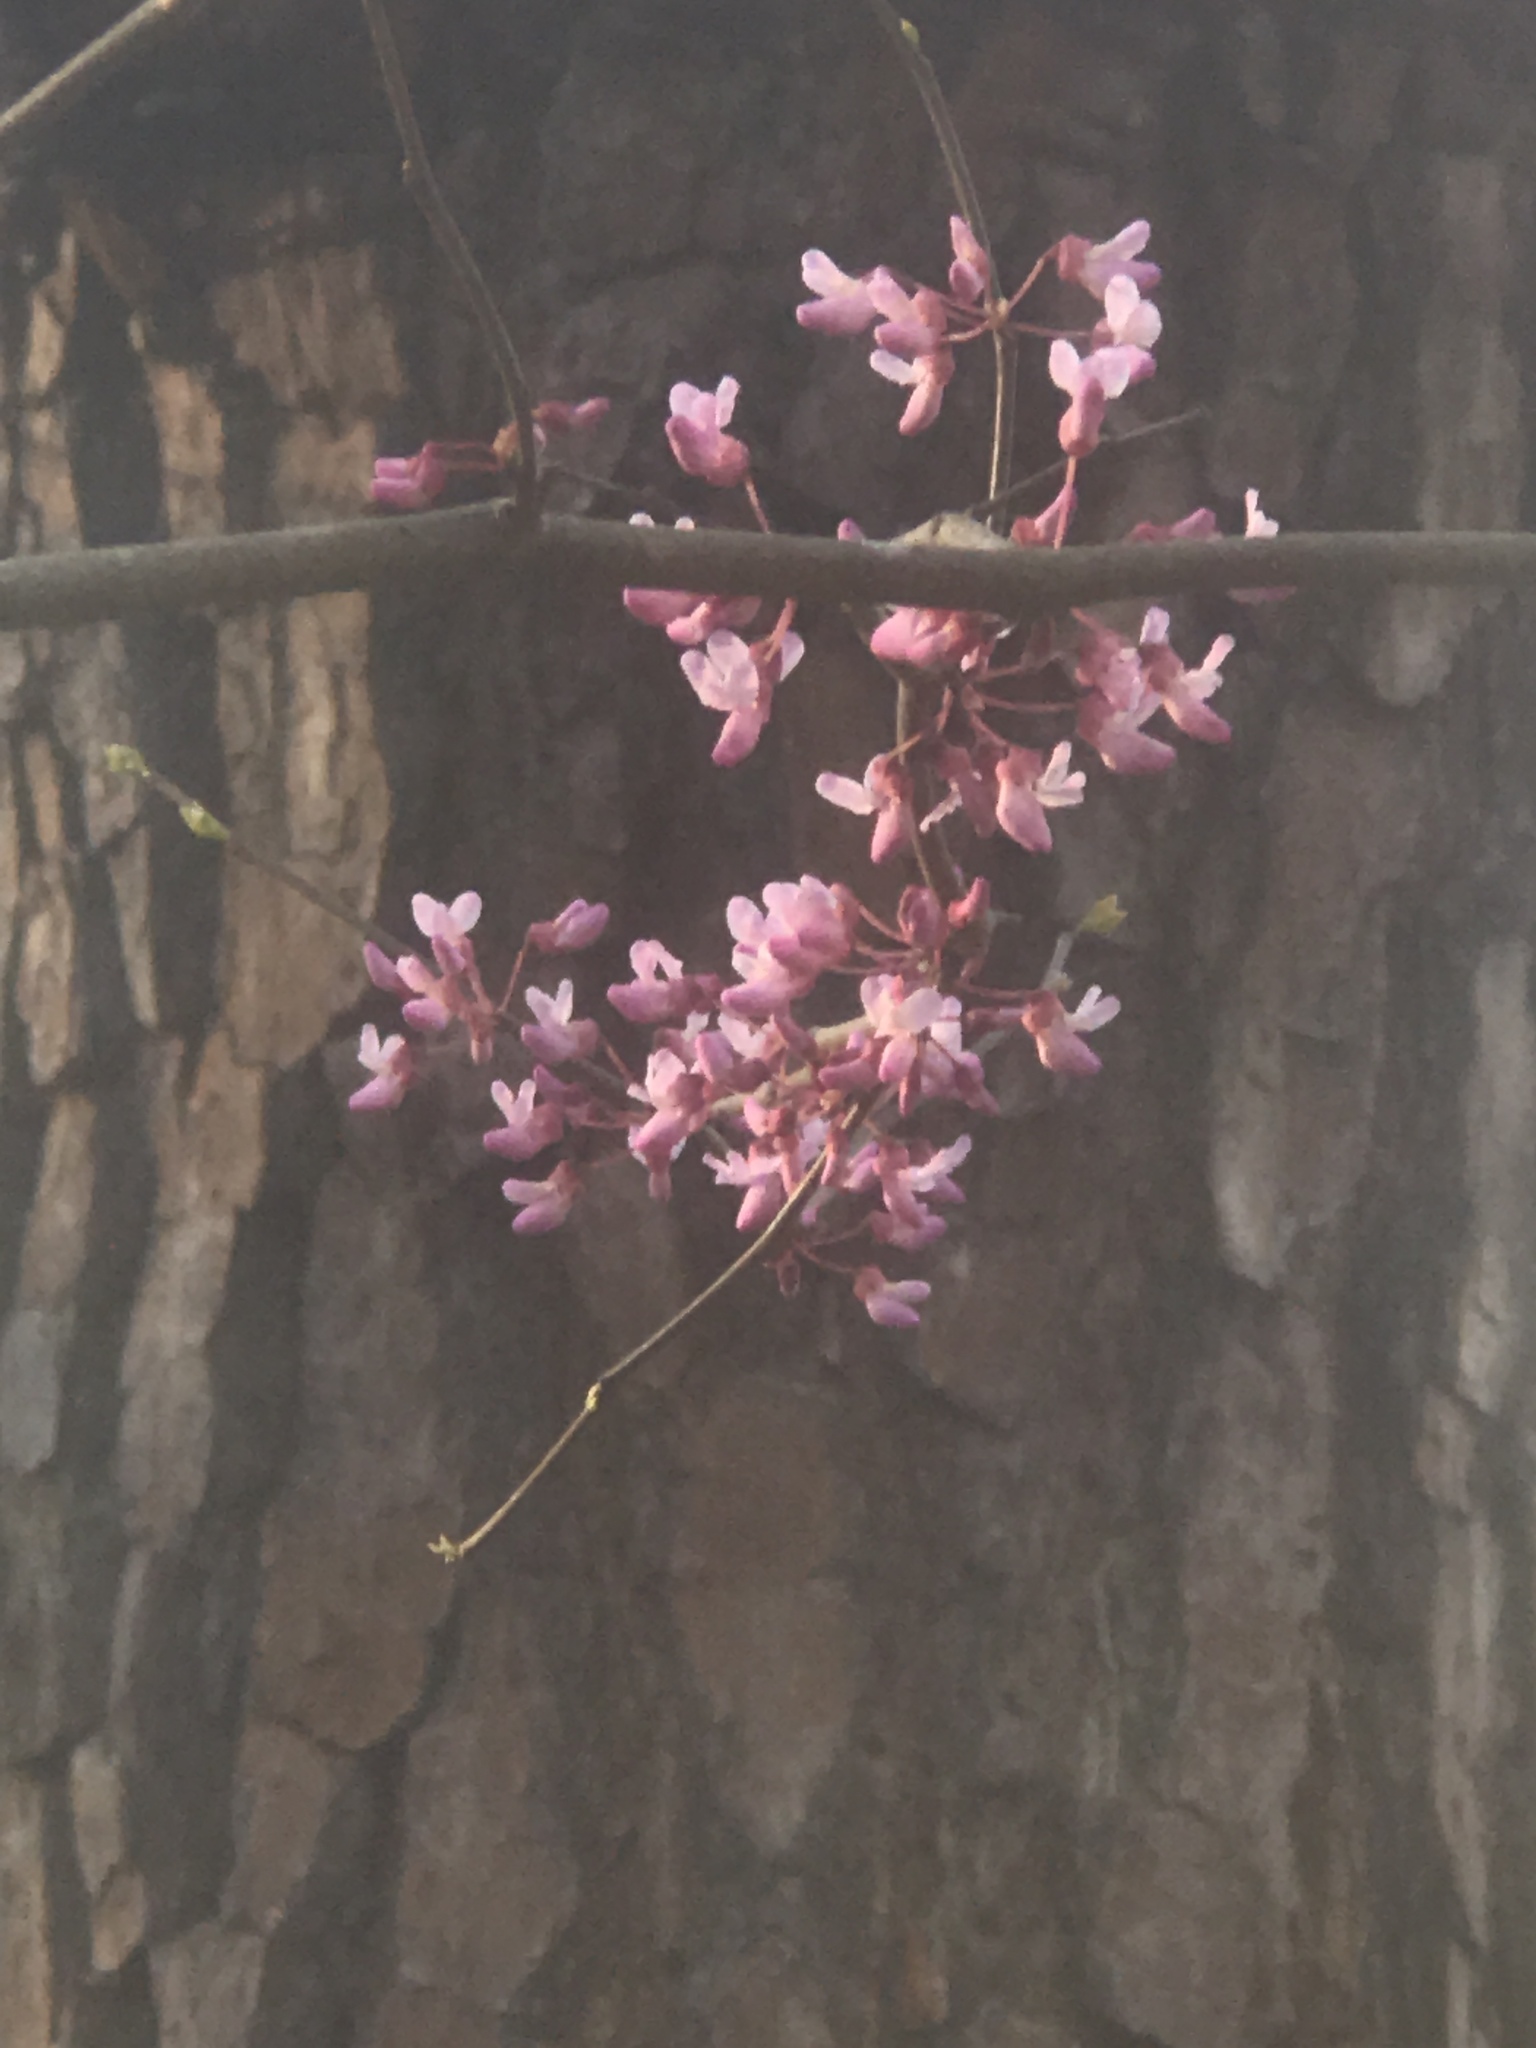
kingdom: Plantae
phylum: Tracheophyta
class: Magnoliopsida
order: Fabales
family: Fabaceae
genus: Cercis
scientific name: Cercis canadensis
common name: Eastern redbud
